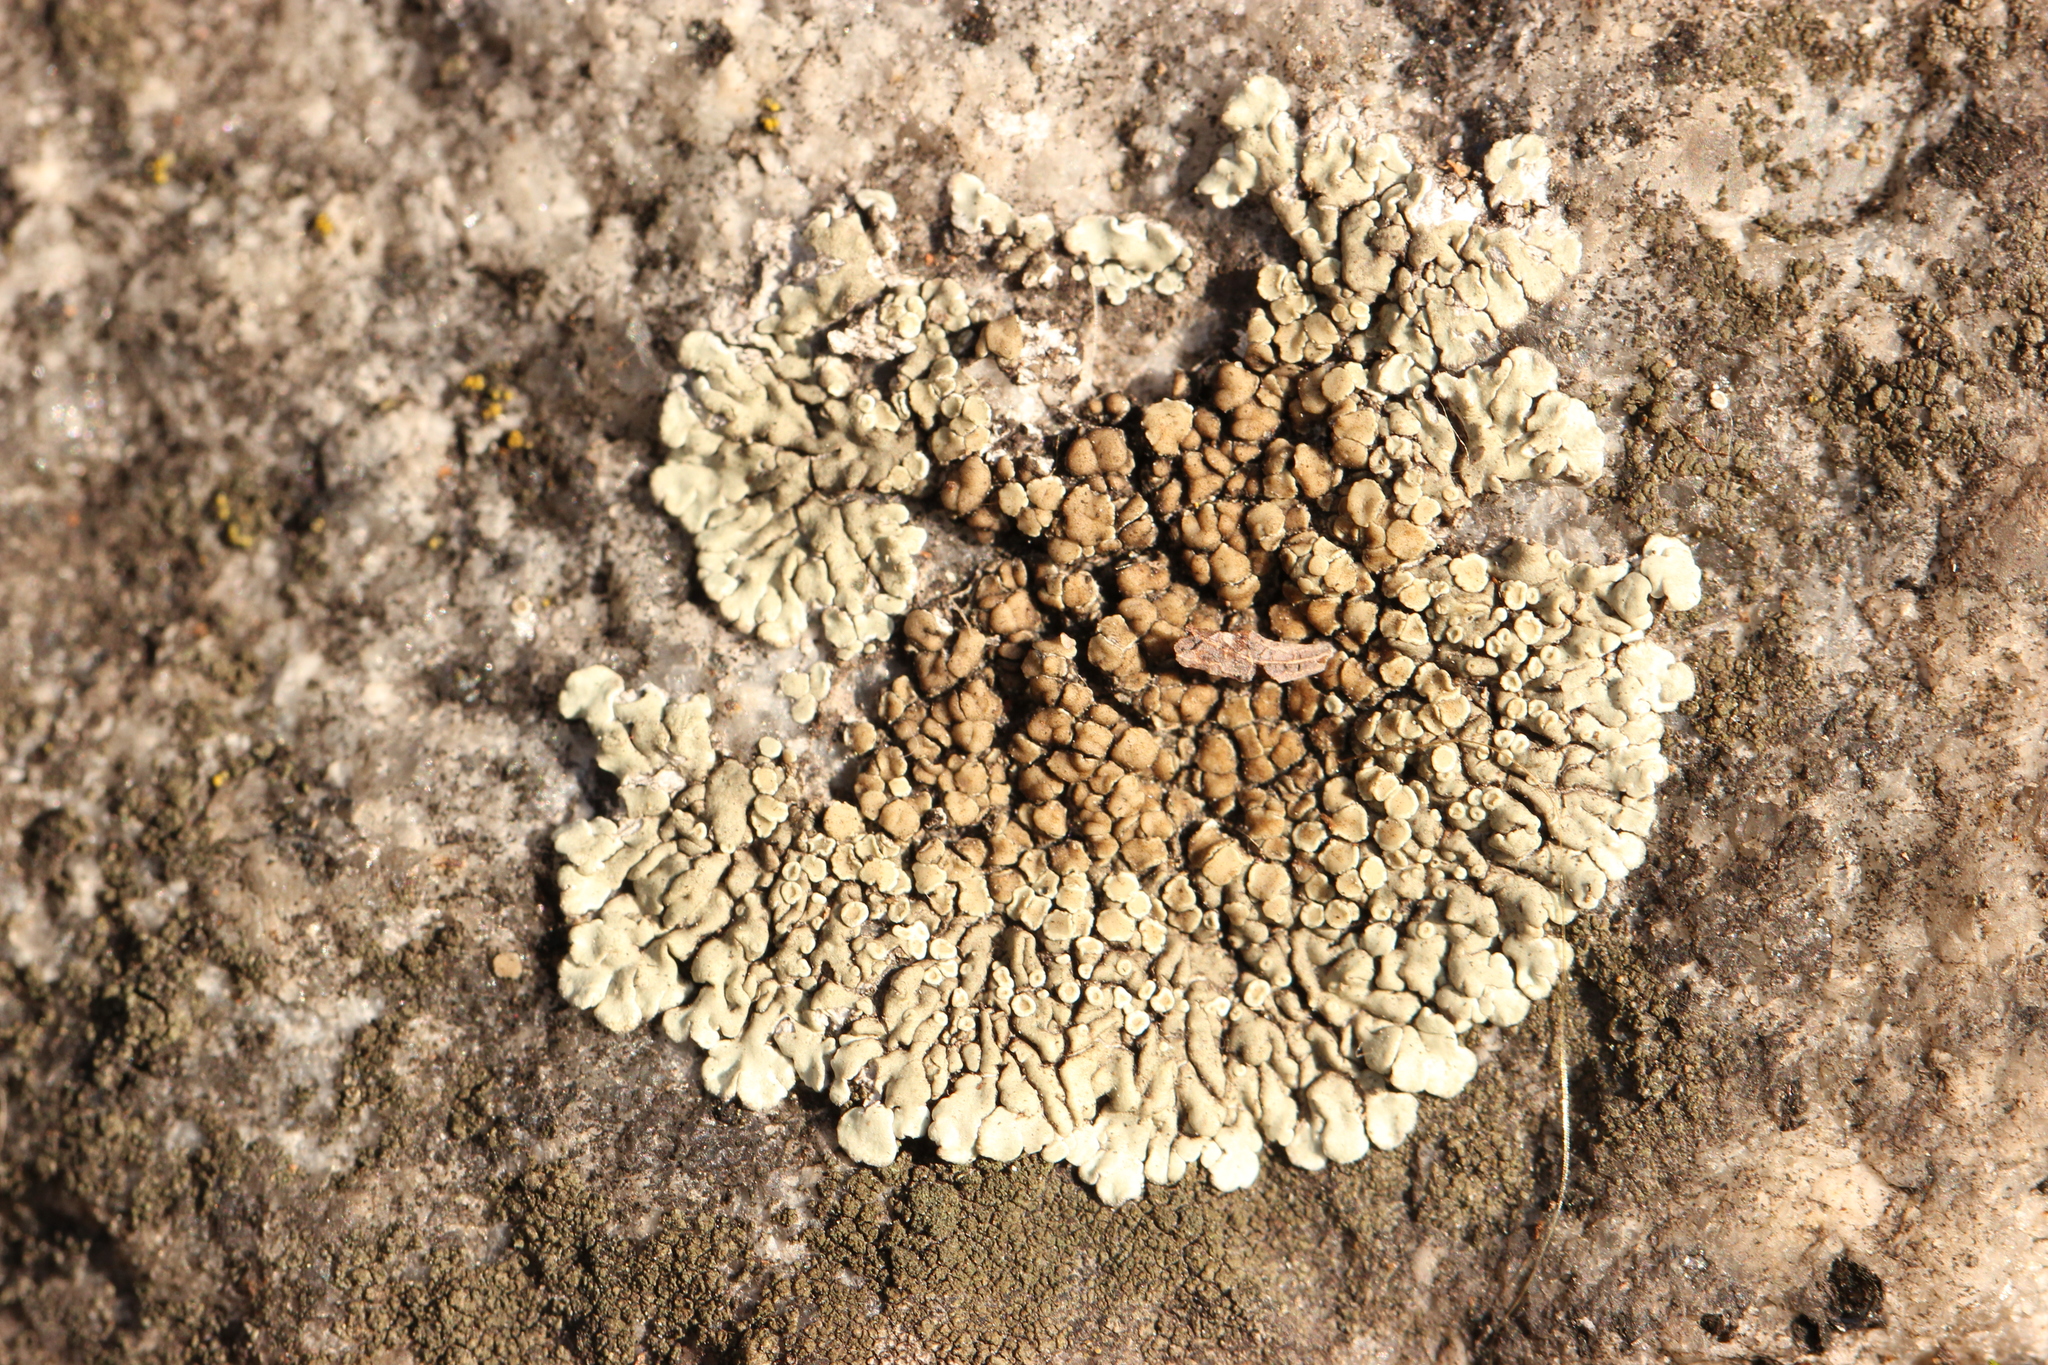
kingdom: Fungi
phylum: Ascomycota
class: Lecanoromycetes
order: Lecanorales
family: Lecanoraceae
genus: Protoparmeliopsis
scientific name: Protoparmeliopsis muralis
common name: Stonewall rim lichen
